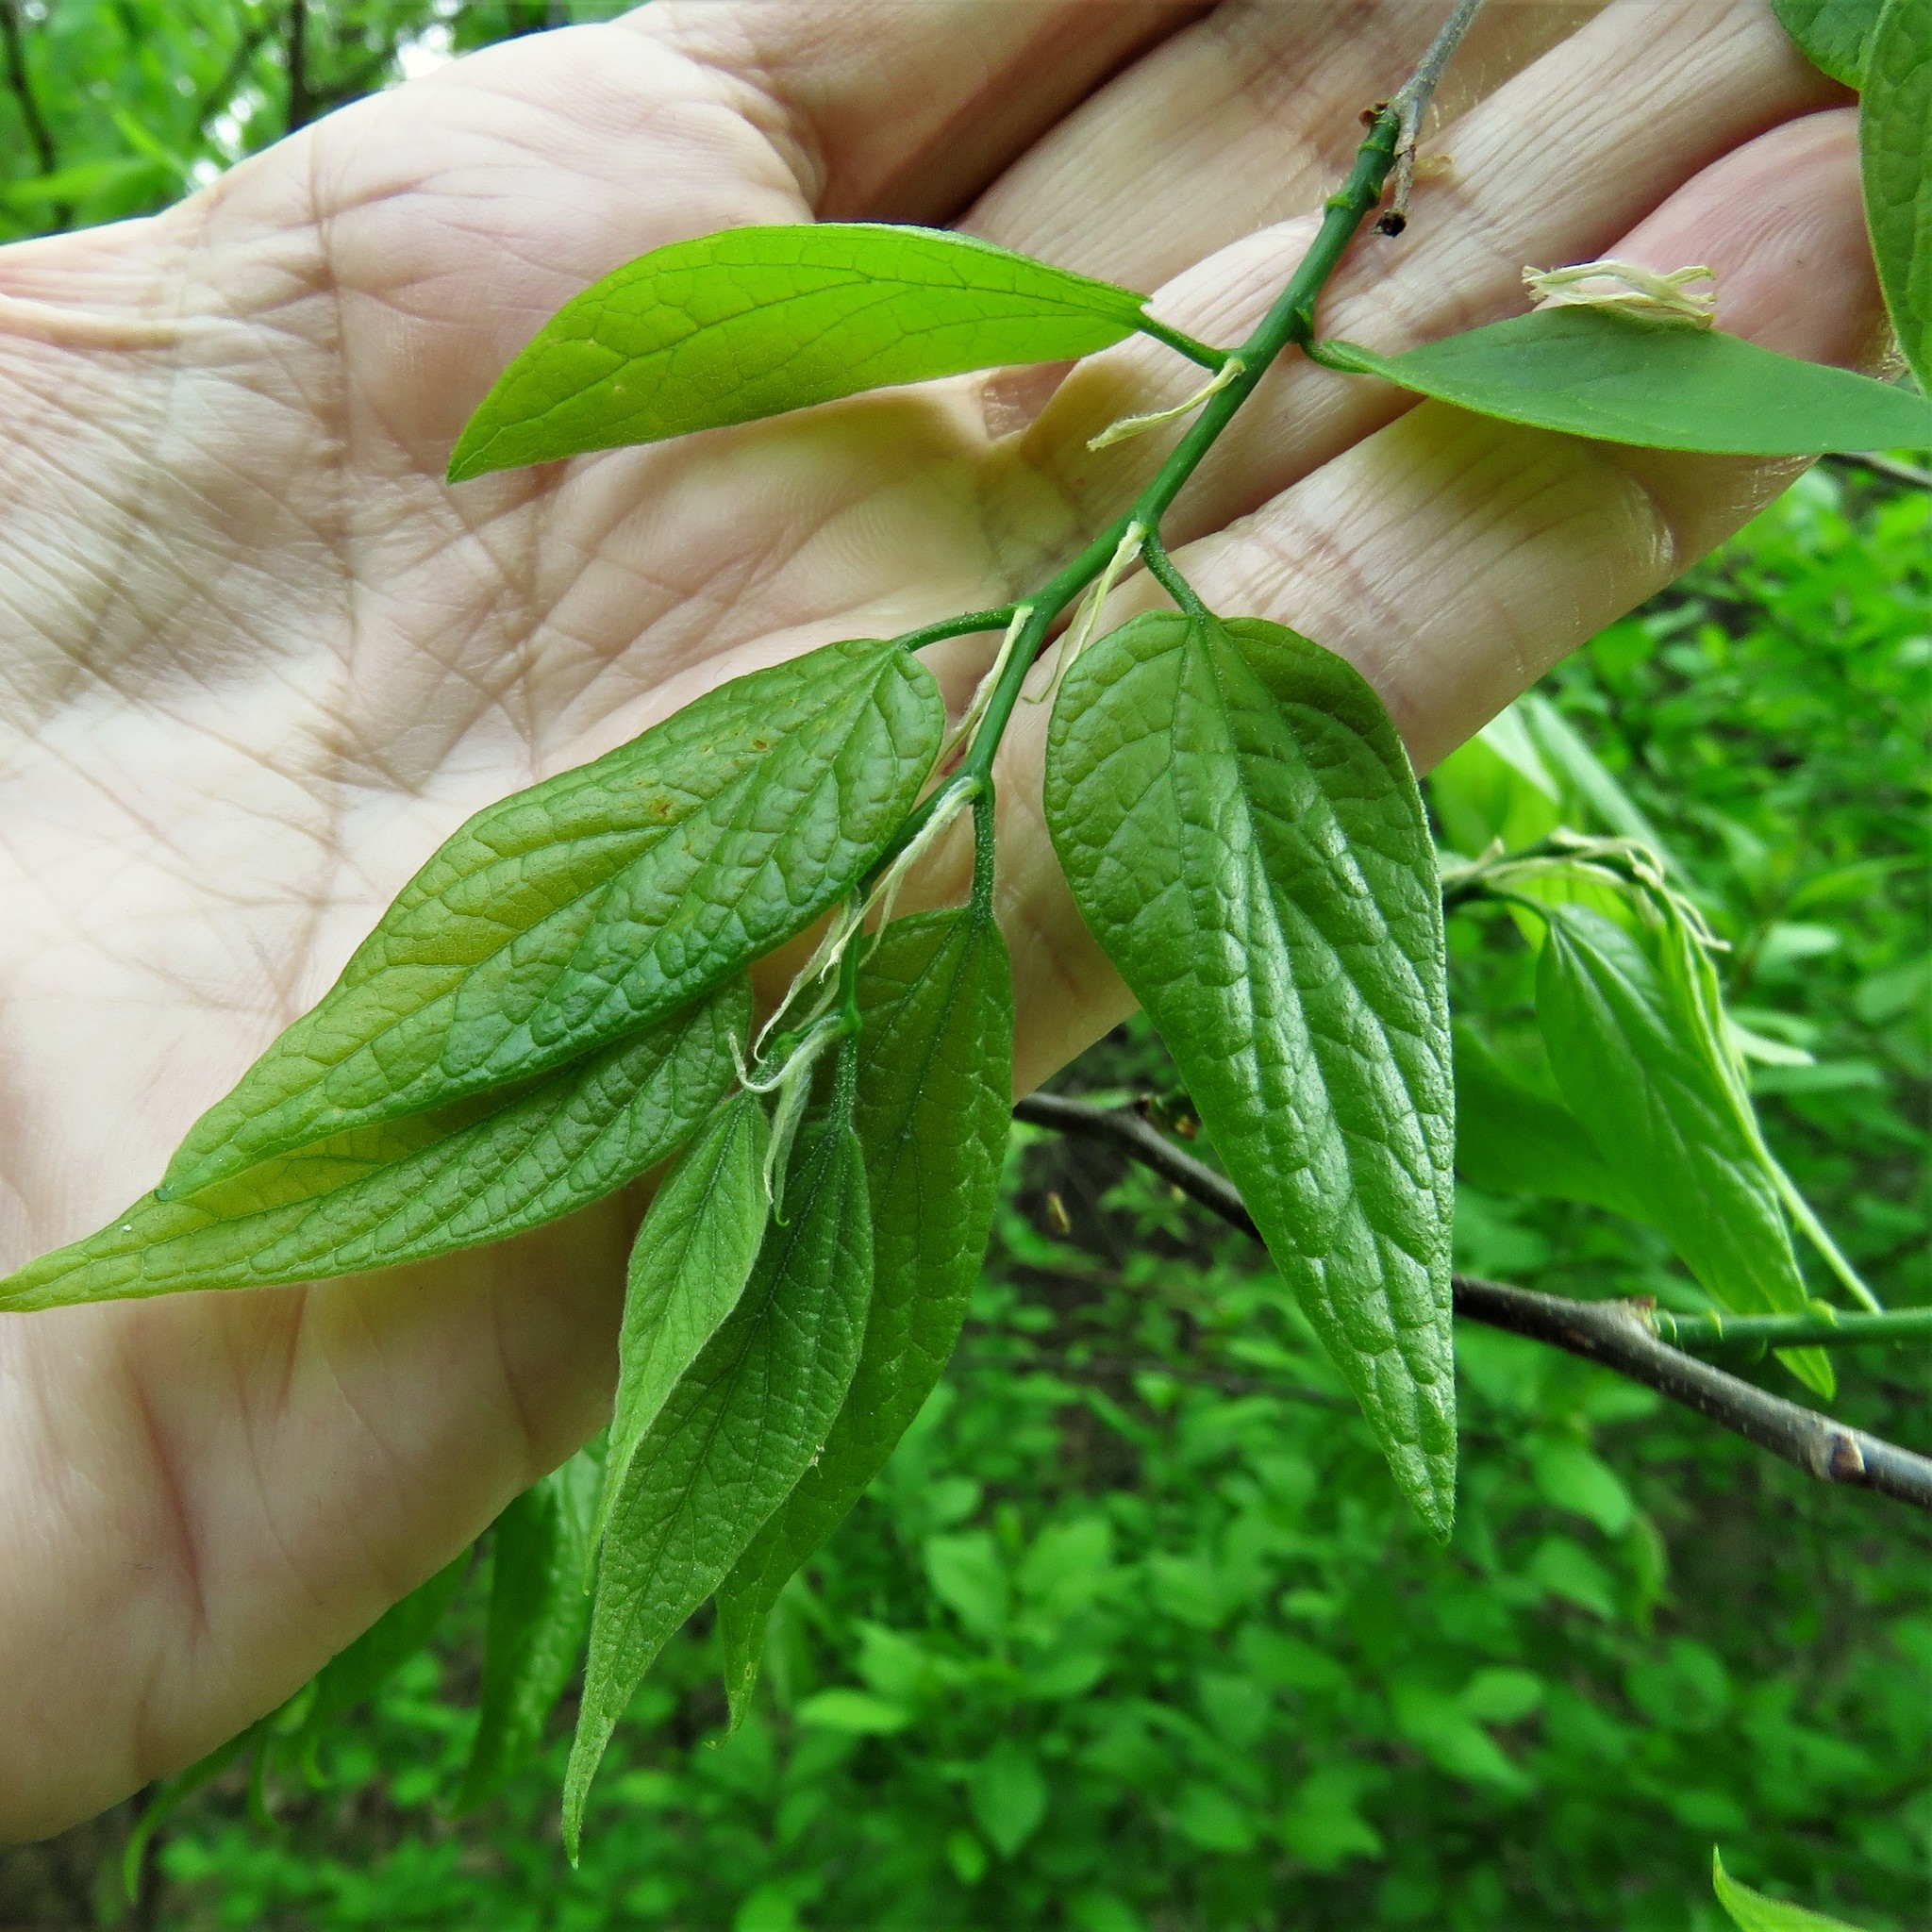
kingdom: Plantae
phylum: Tracheophyta
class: Magnoliopsida
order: Rosales
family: Cannabaceae
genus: Celtis
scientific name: Celtis laevigata
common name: Sugarberry
